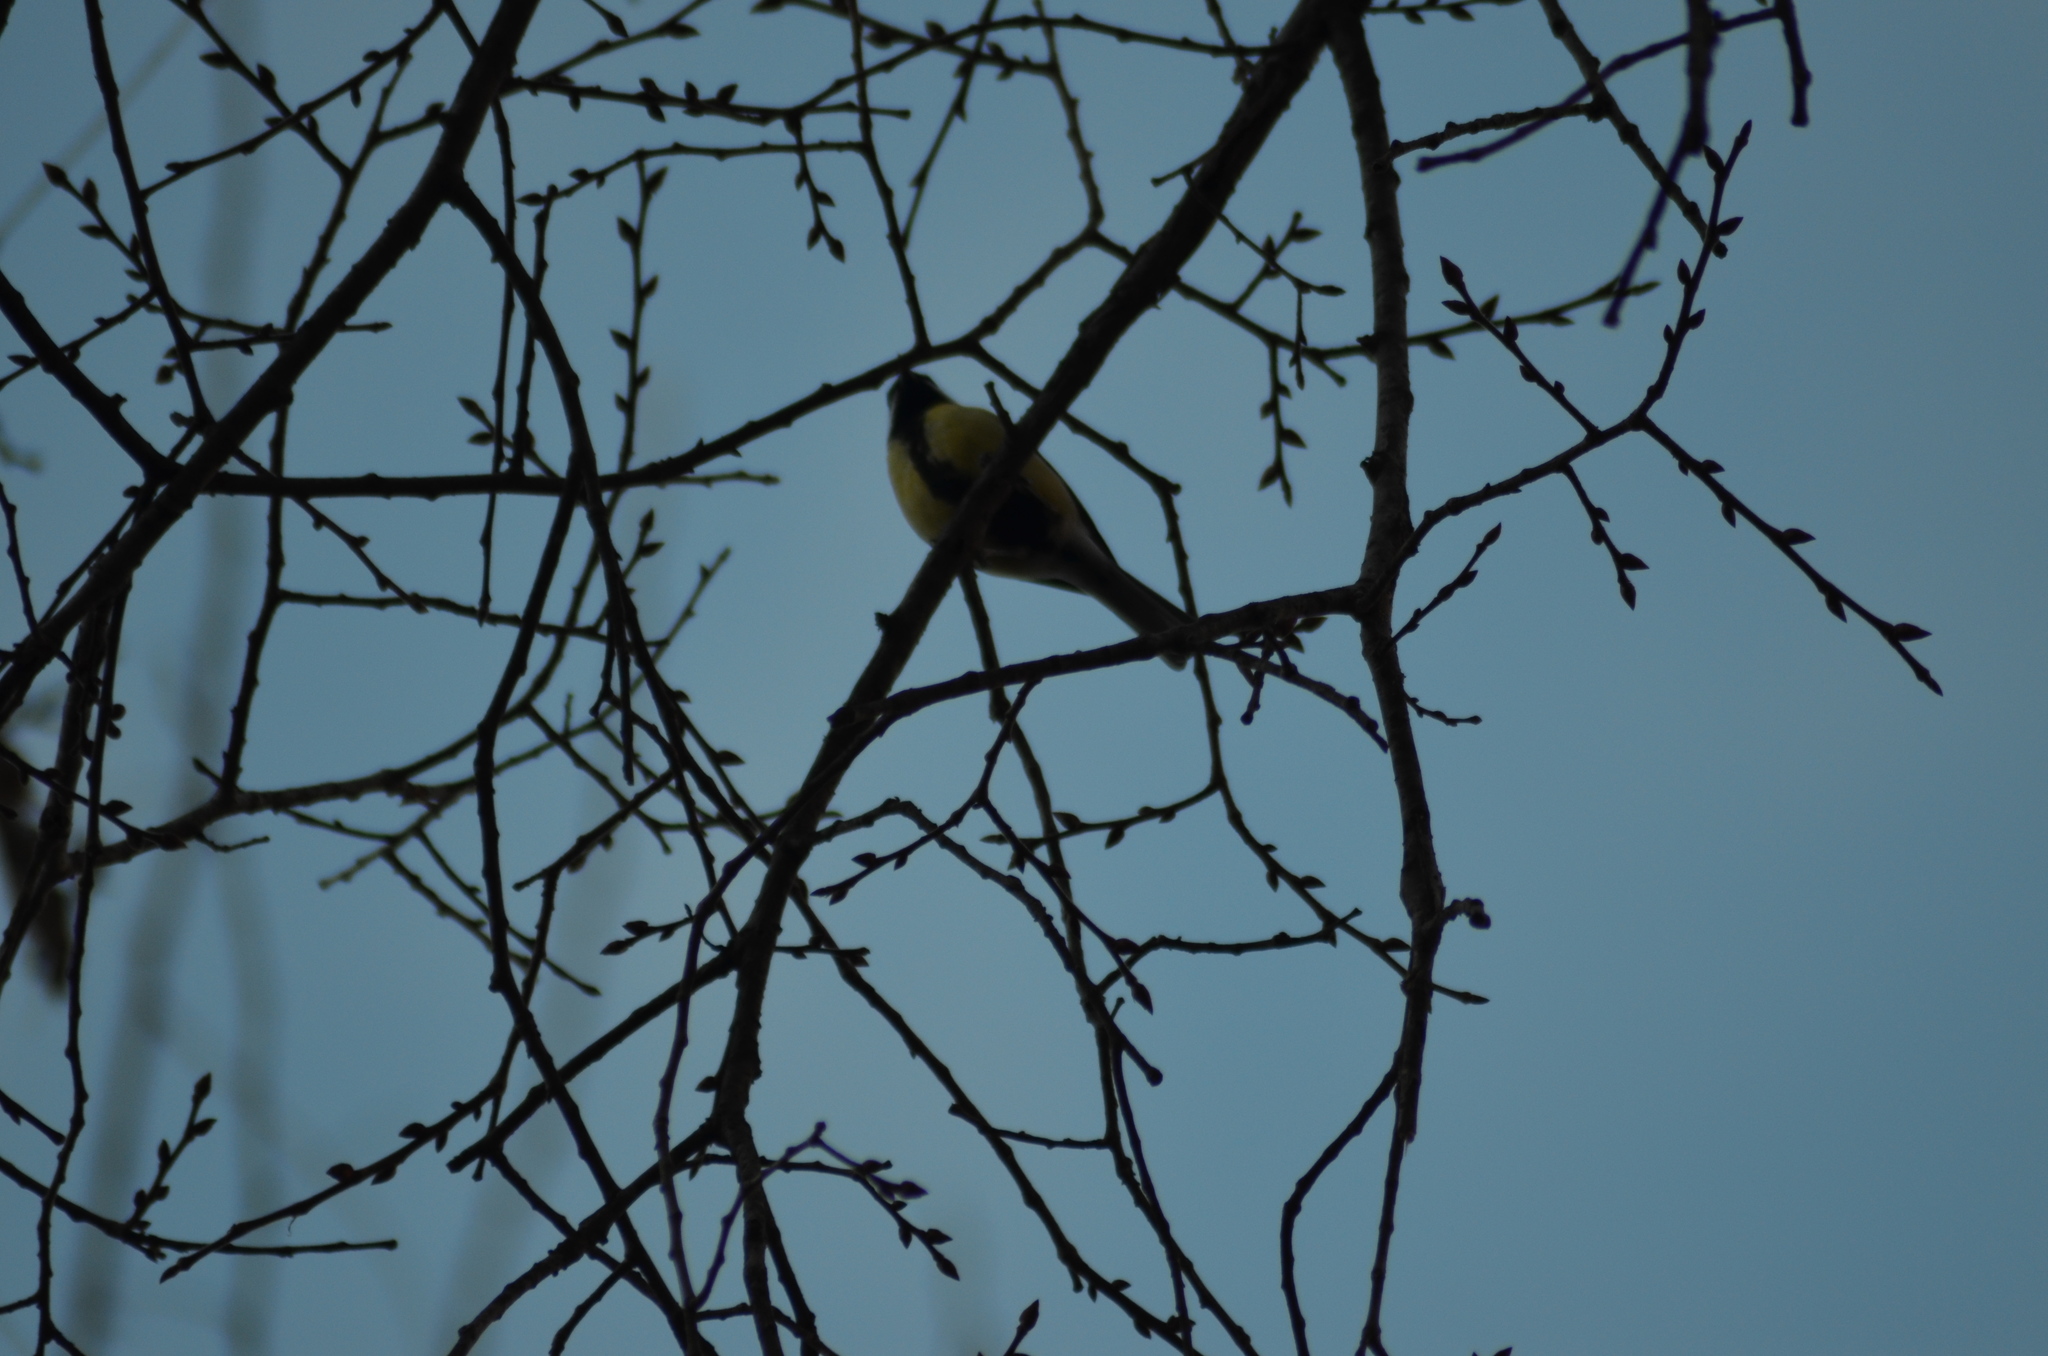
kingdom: Animalia
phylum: Chordata
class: Aves
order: Passeriformes
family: Paridae
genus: Parus
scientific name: Parus major
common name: Great tit
